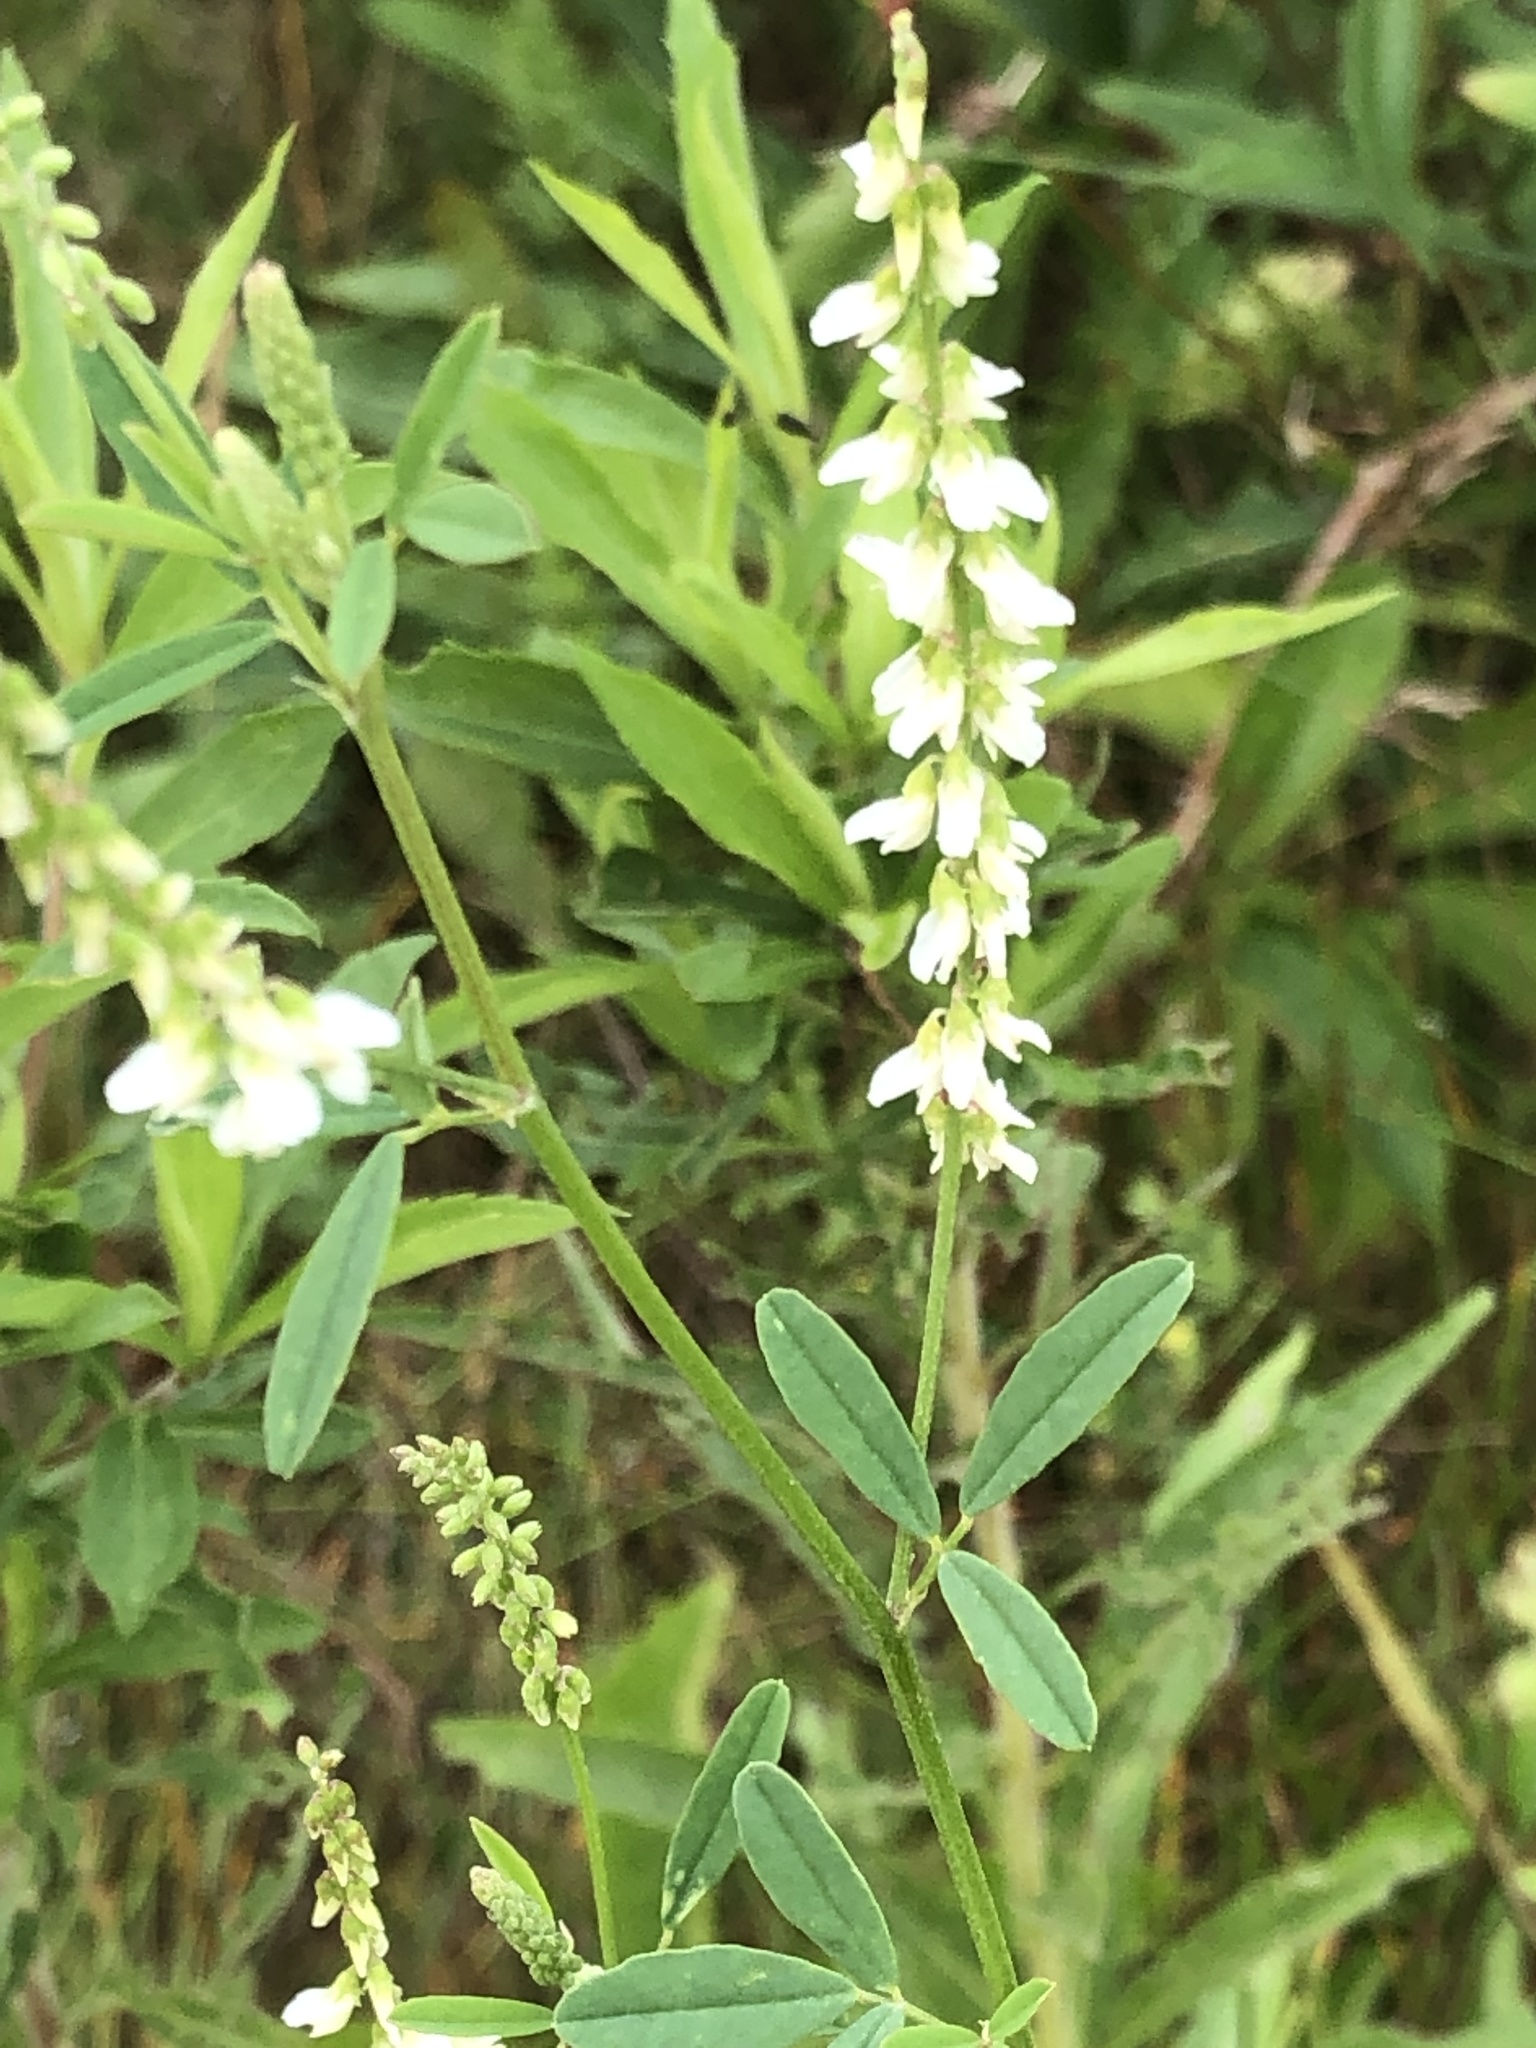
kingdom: Plantae
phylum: Tracheophyta
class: Magnoliopsida
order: Fabales
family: Fabaceae
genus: Melilotus
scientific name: Melilotus albus
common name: White melilot
